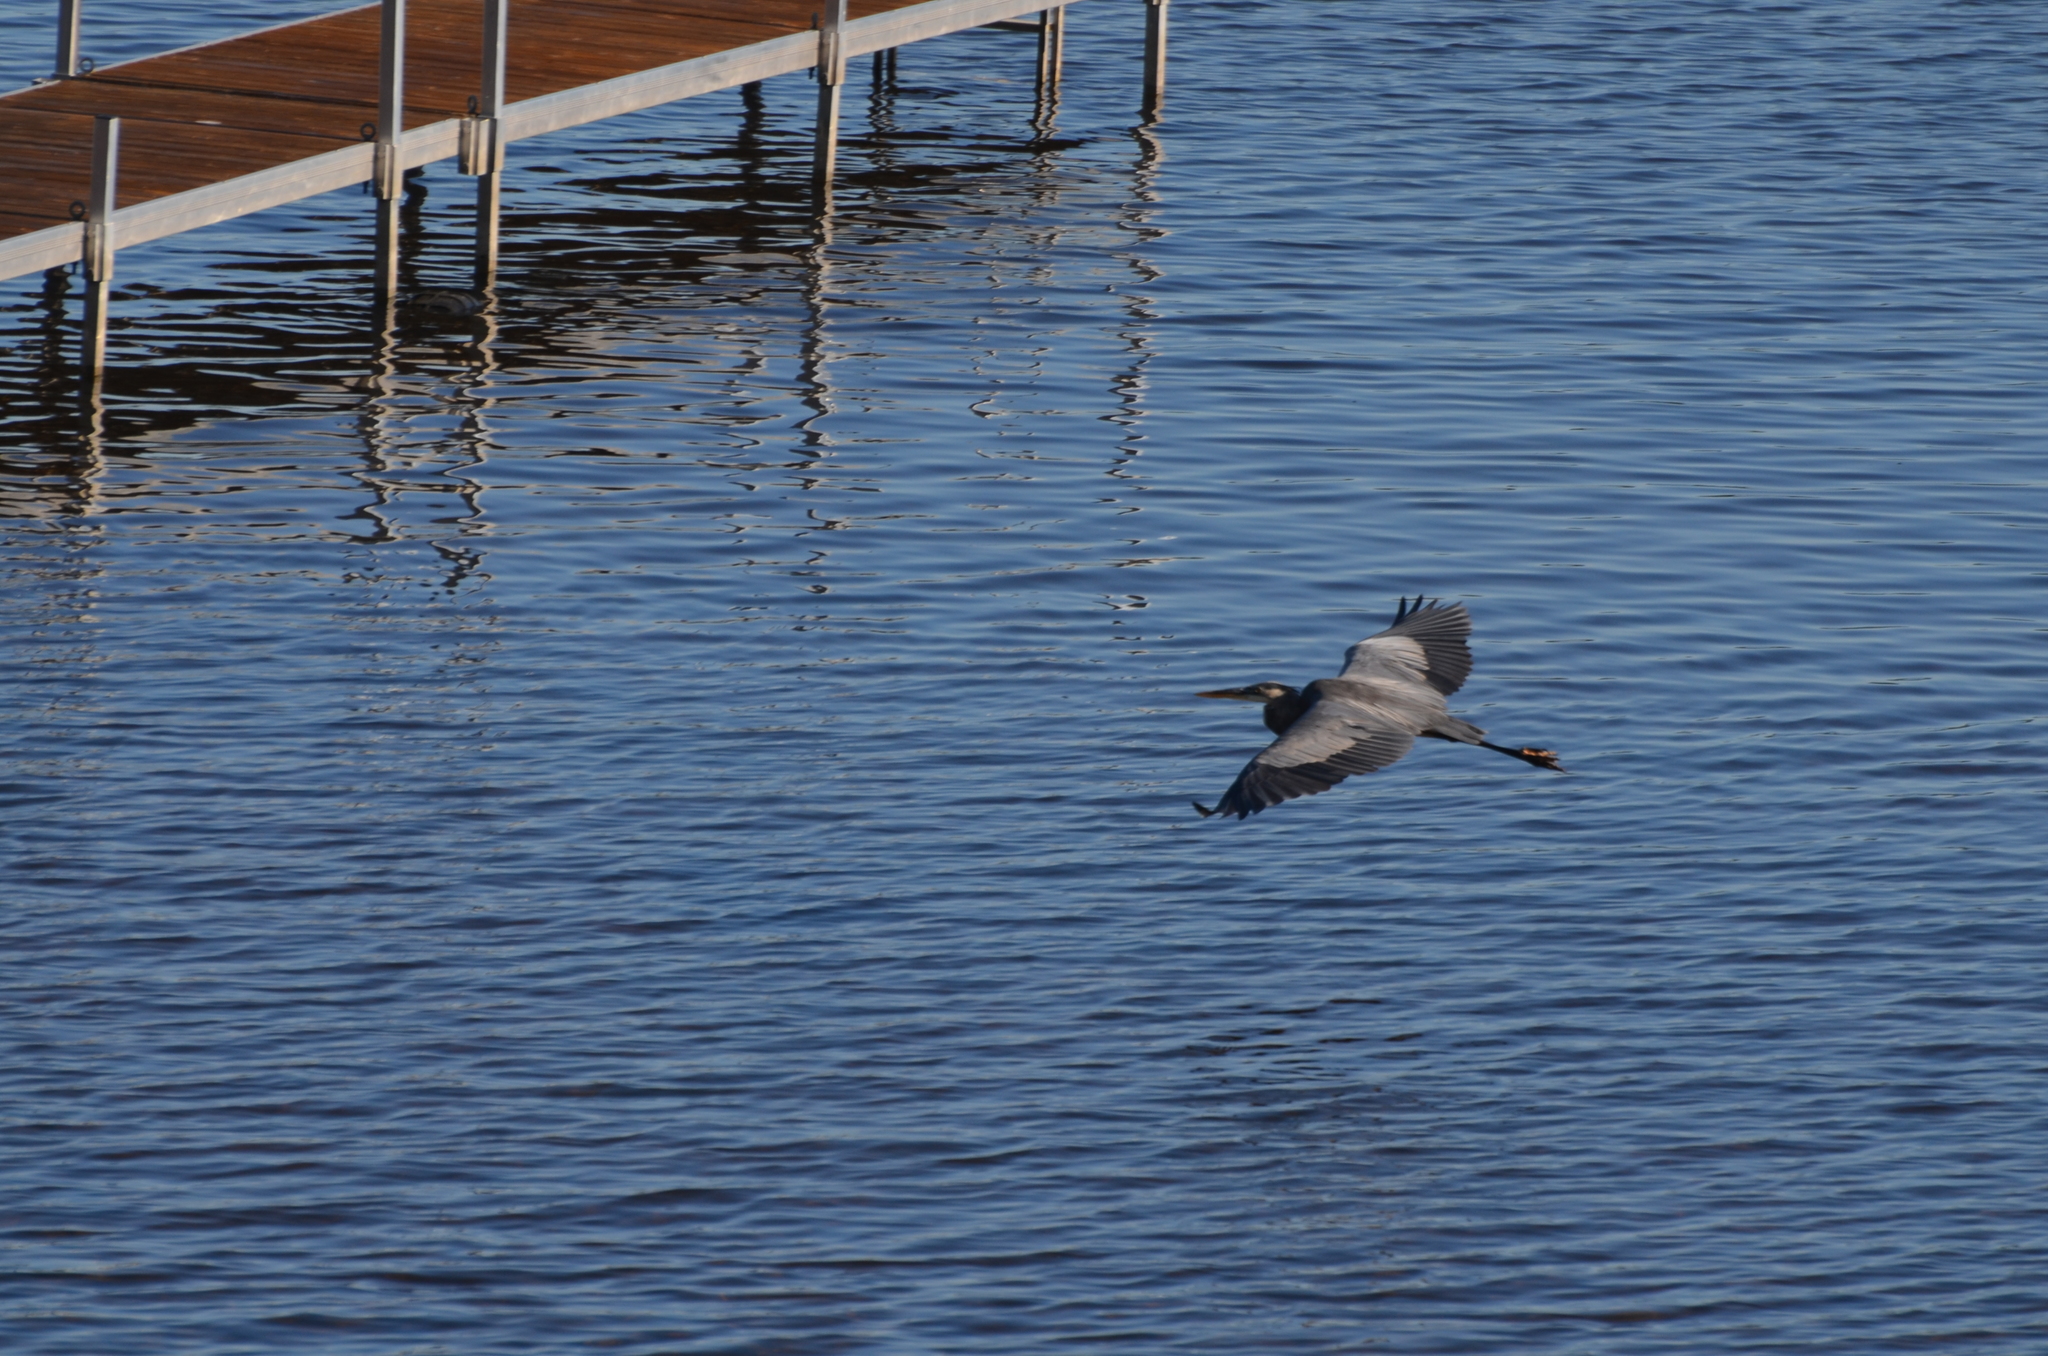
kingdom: Animalia
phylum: Chordata
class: Aves
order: Pelecaniformes
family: Ardeidae
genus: Ardea
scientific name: Ardea herodias
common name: Great blue heron
